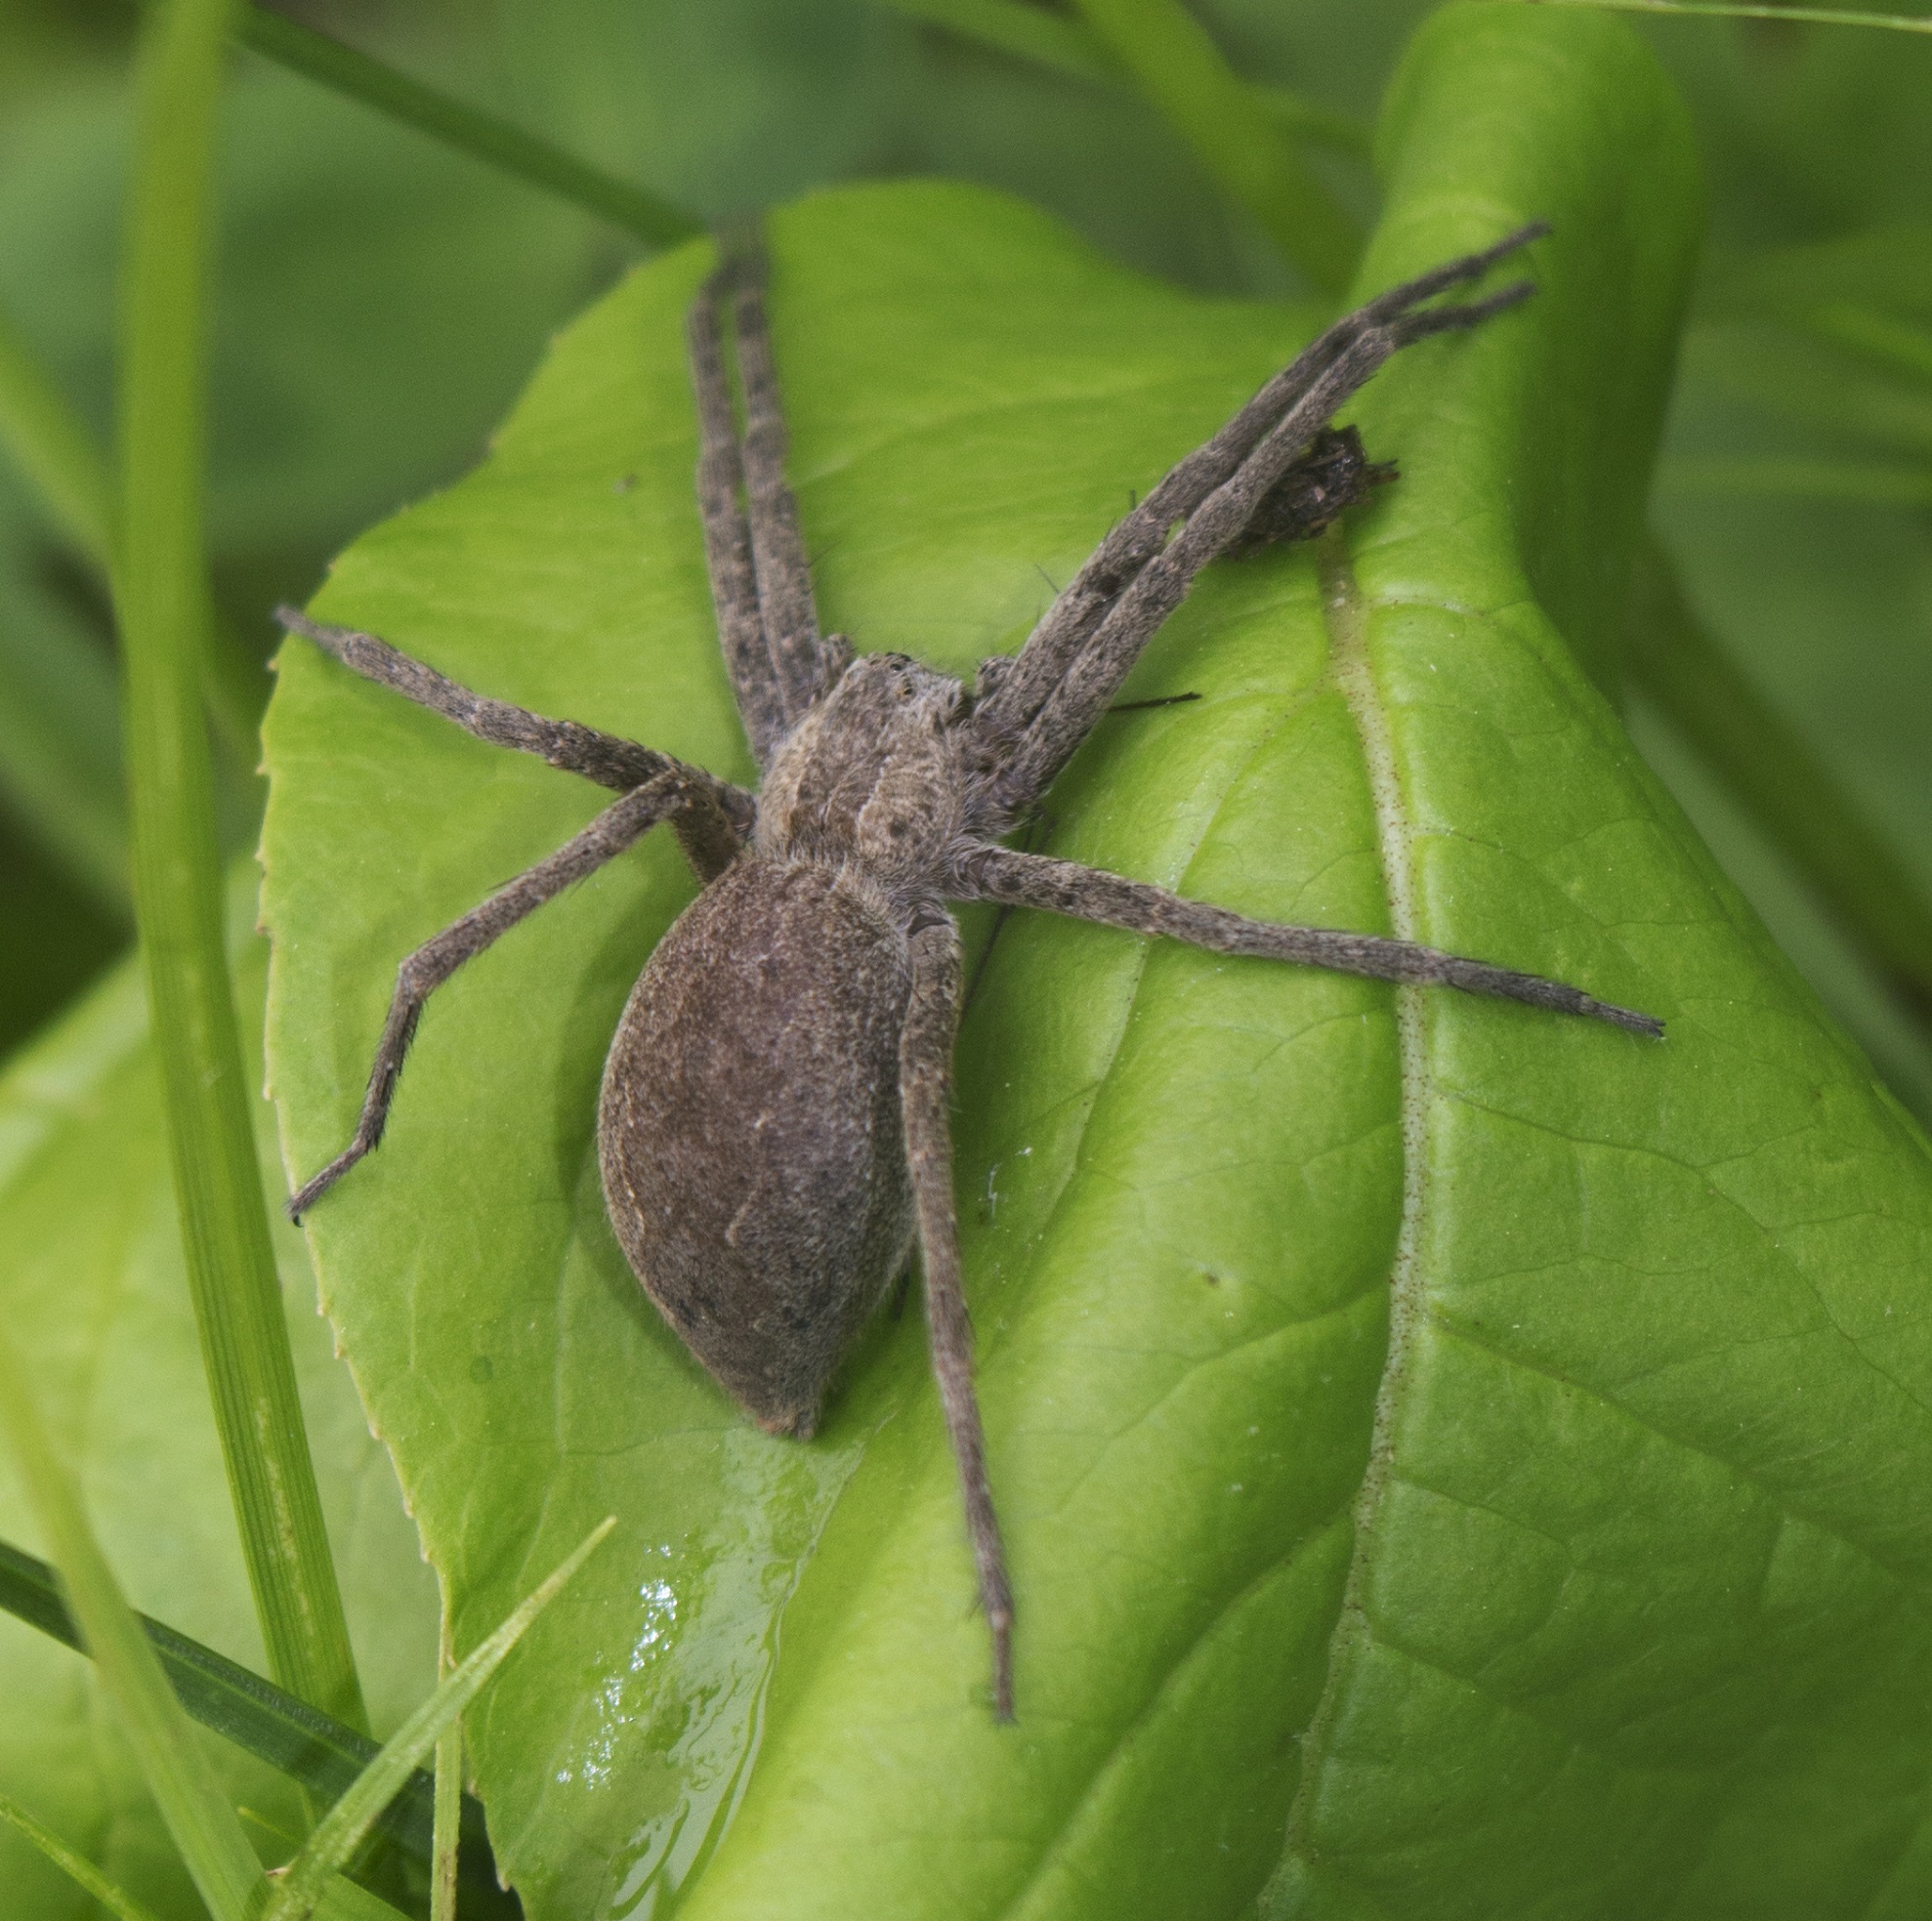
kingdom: Animalia
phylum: Arthropoda
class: Arachnida
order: Araneae
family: Pisauridae
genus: Pisaurina
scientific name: Pisaurina mira
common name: American nursery web spider
